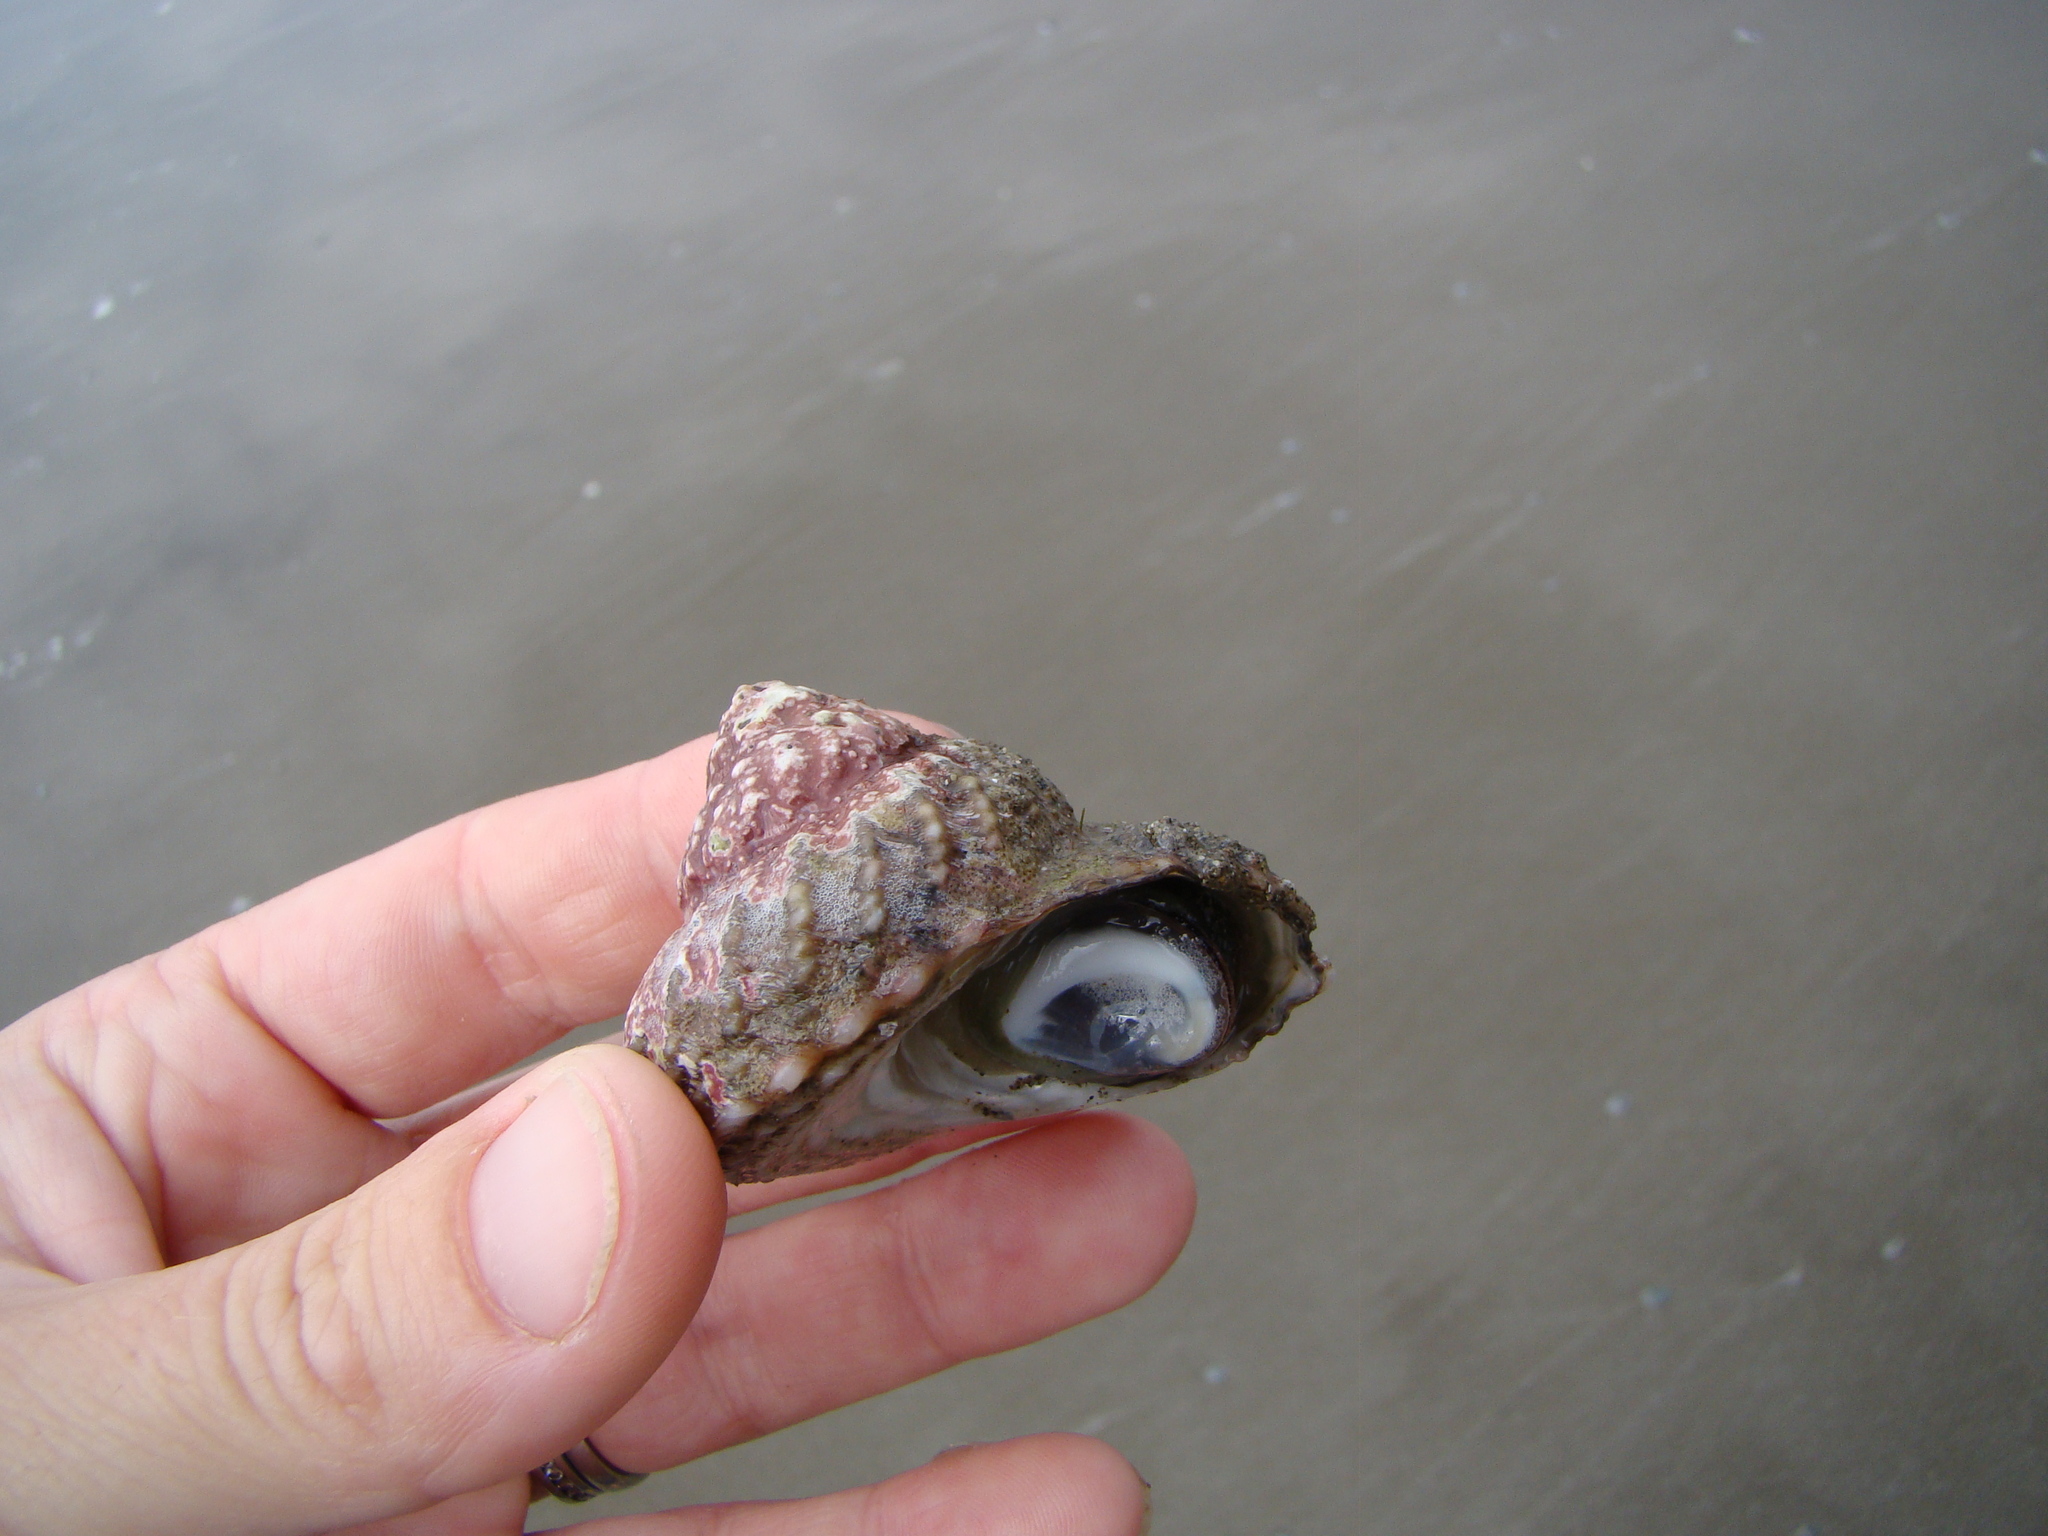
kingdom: Animalia
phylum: Mollusca
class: Gastropoda
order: Trochida
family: Turbinidae
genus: Cookia
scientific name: Cookia sulcata
